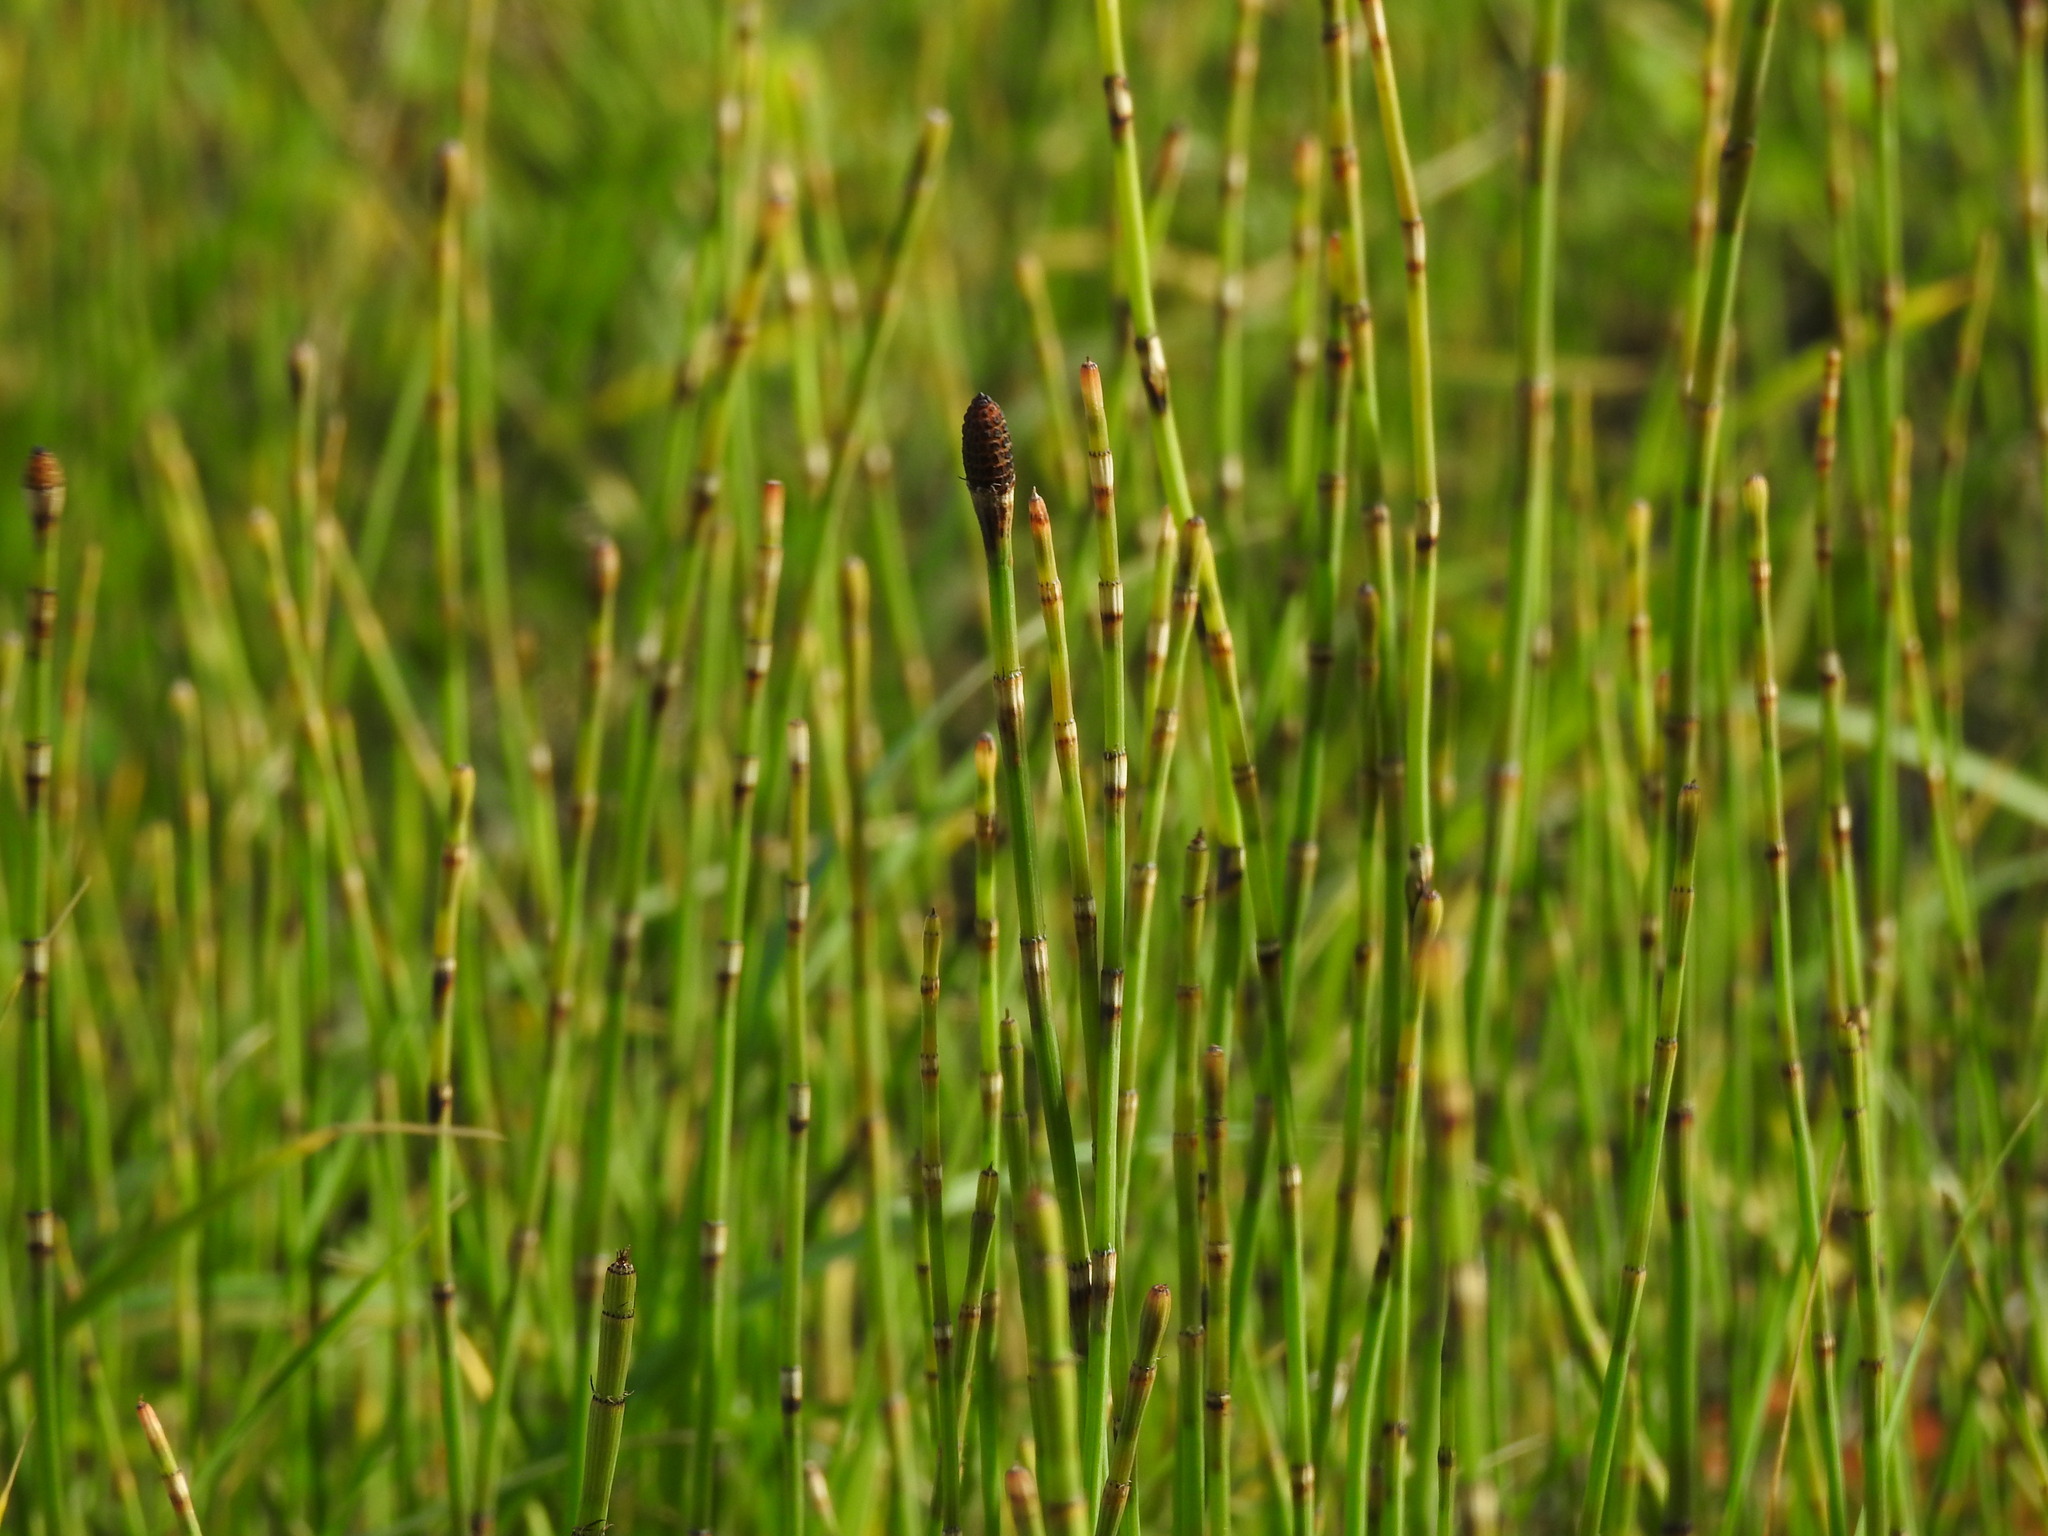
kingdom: Plantae
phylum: Tracheophyta
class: Polypodiopsida
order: Equisetales
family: Equisetaceae
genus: Equisetum
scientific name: Equisetum ramosissimum
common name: Branched horsetail
